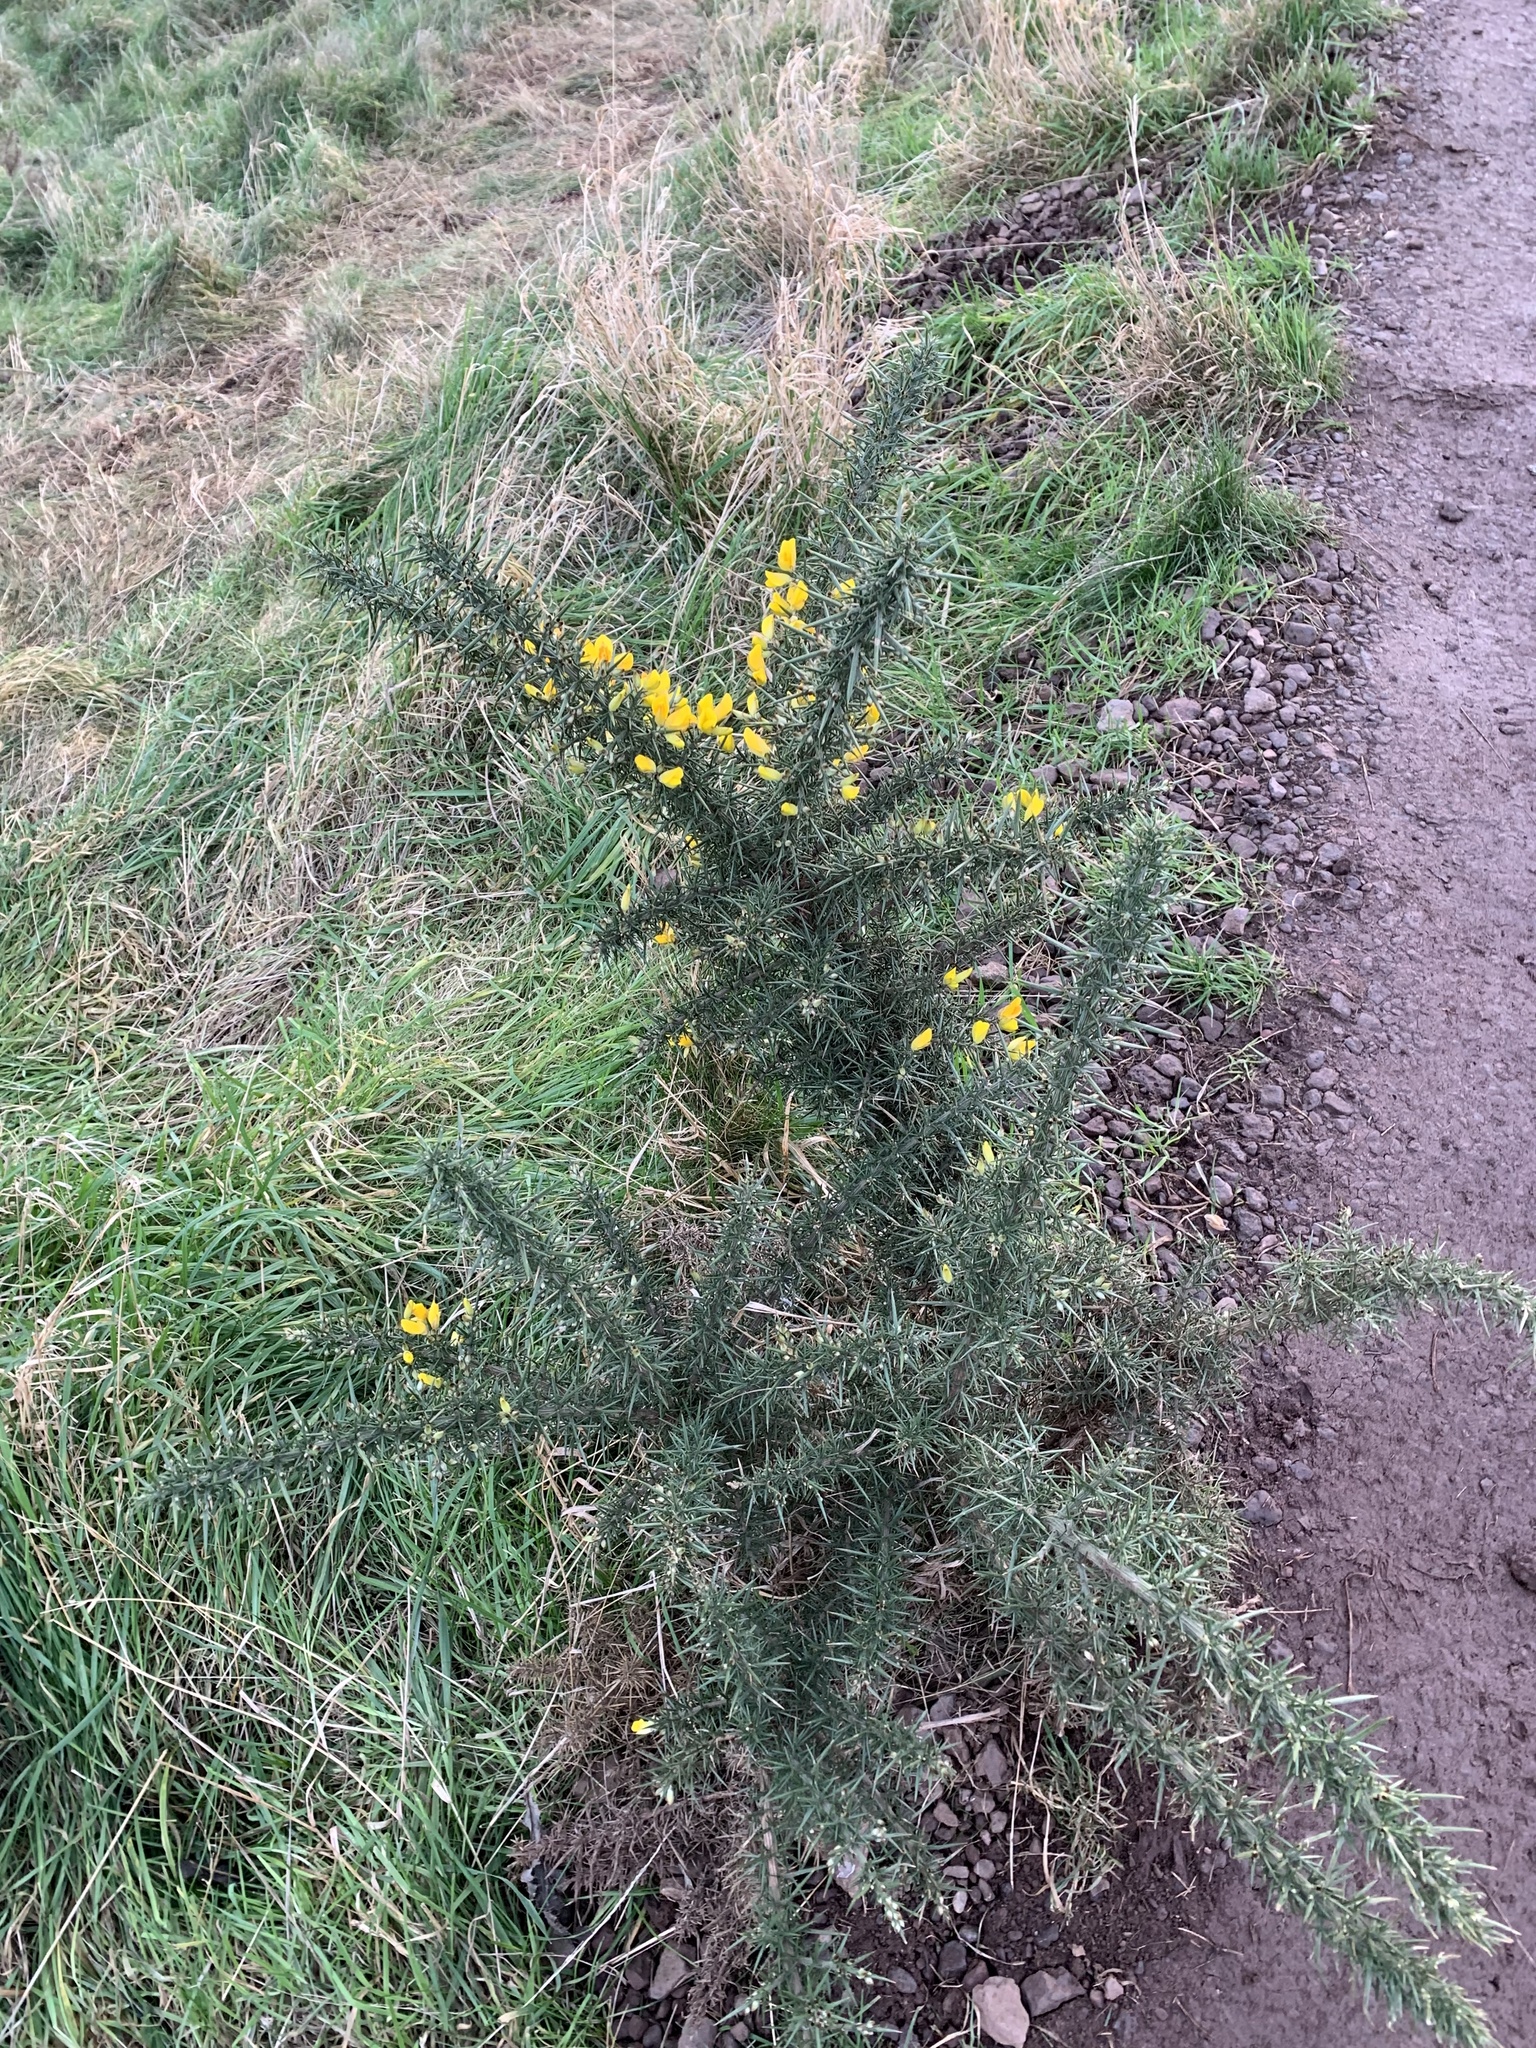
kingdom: Plantae
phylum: Tracheophyta
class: Magnoliopsida
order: Fabales
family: Fabaceae
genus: Ulex
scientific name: Ulex europaeus
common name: Common gorse
